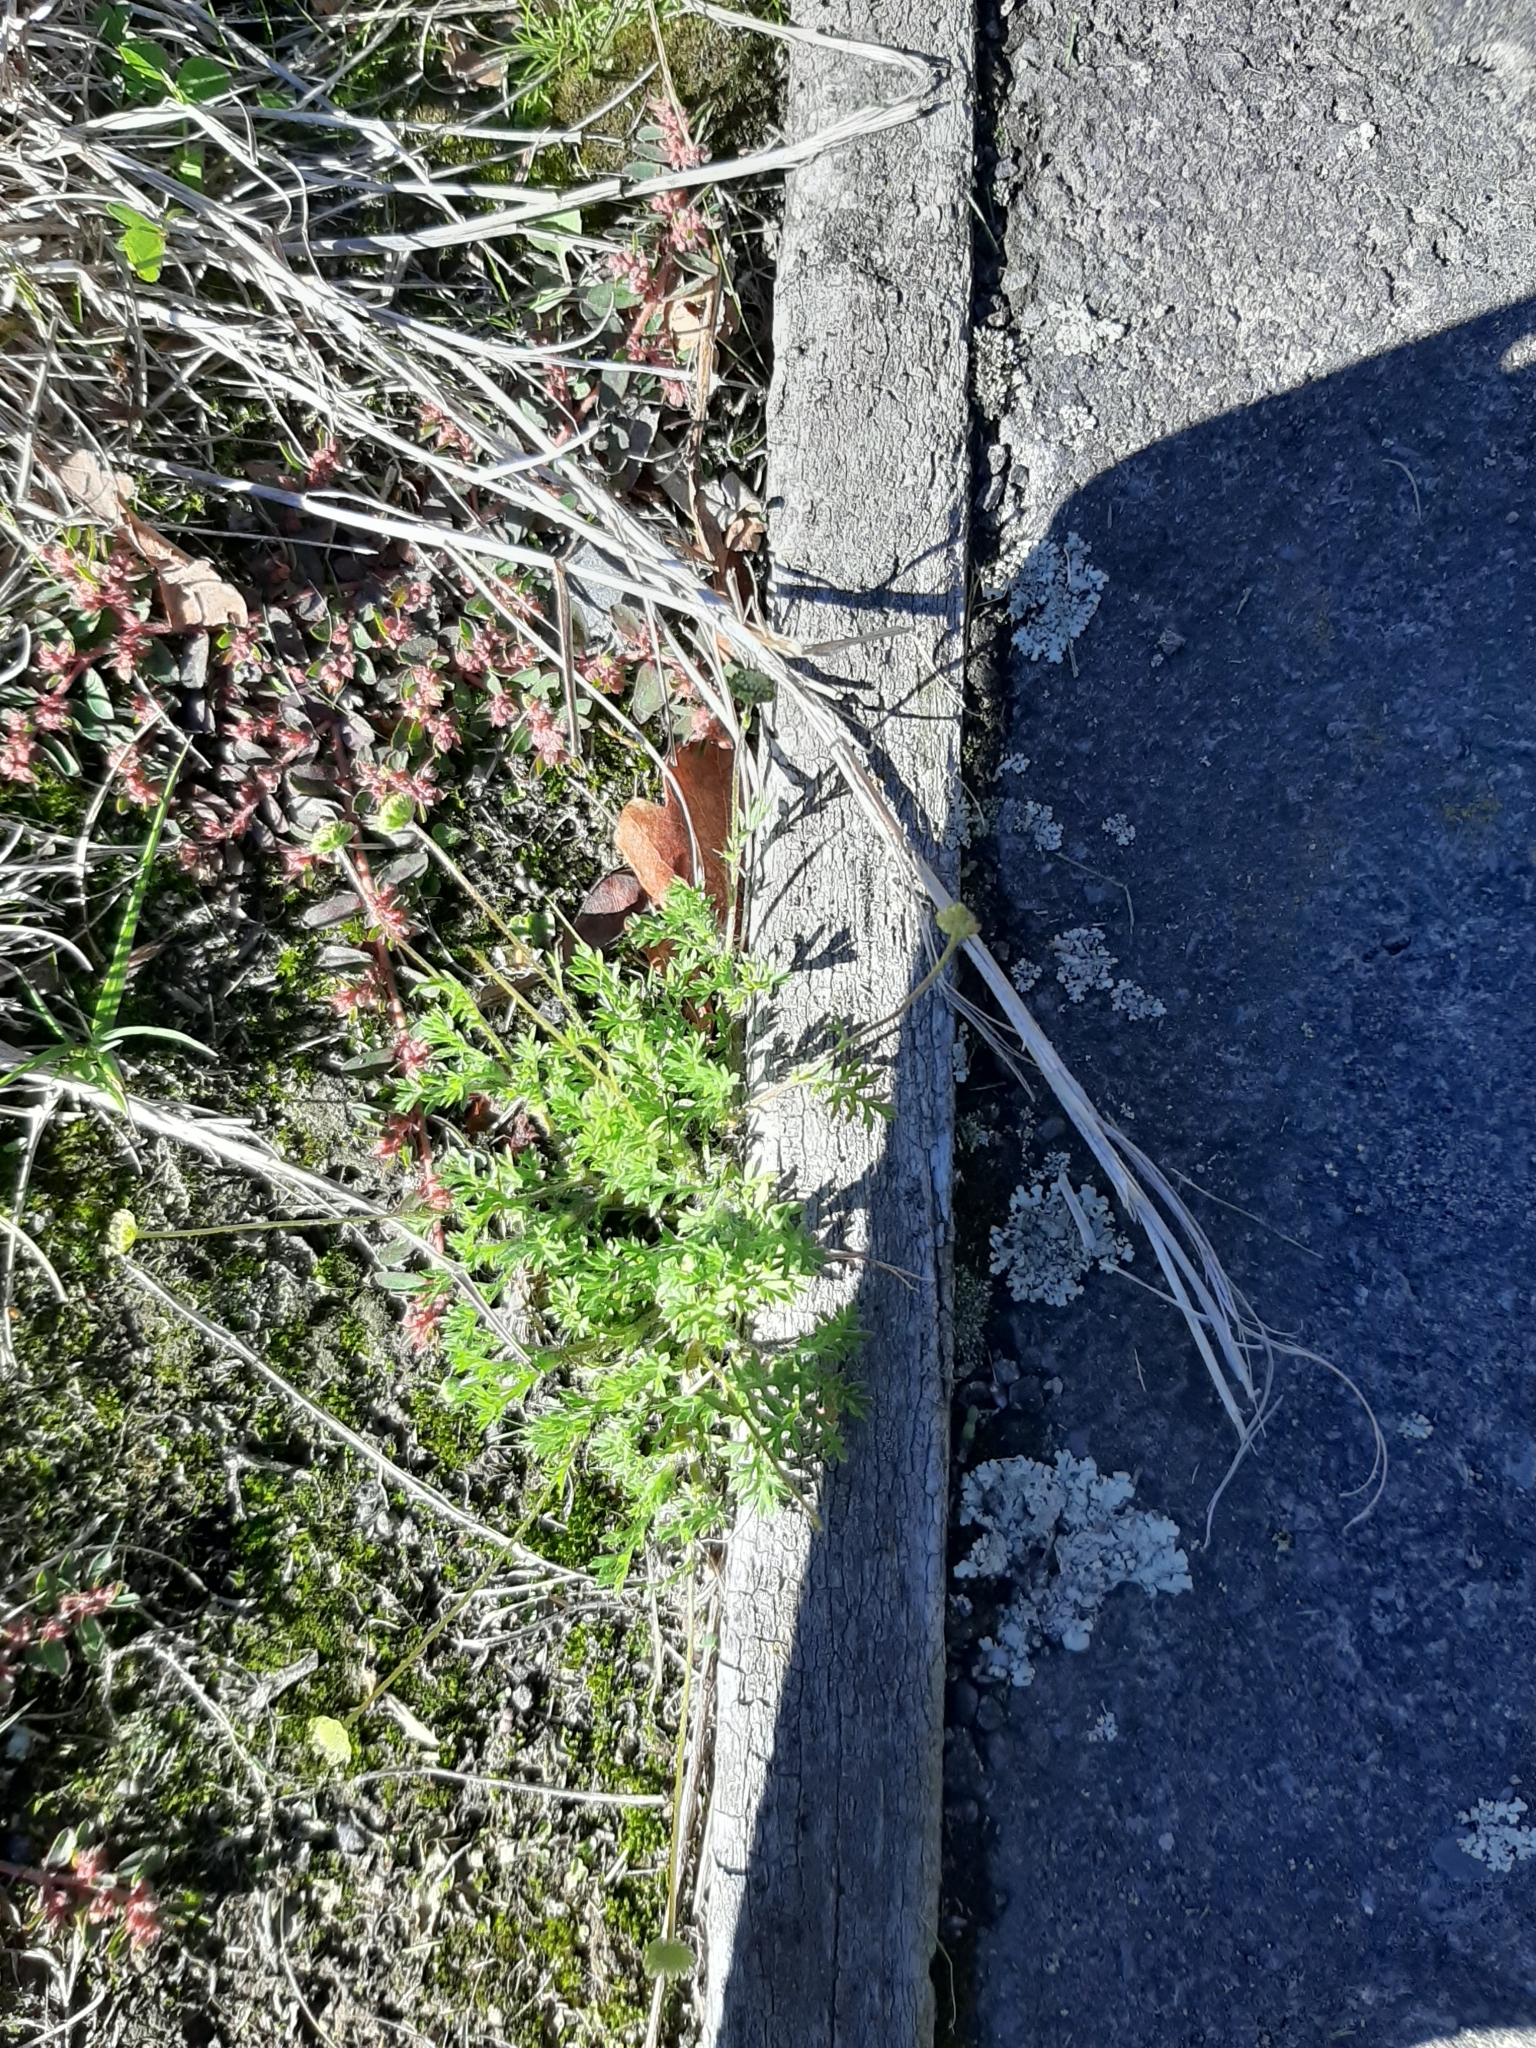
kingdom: Plantae
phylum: Tracheophyta
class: Magnoliopsida
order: Asterales
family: Asteraceae
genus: Cotula
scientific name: Cotula australis
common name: Australian waterbuttons
